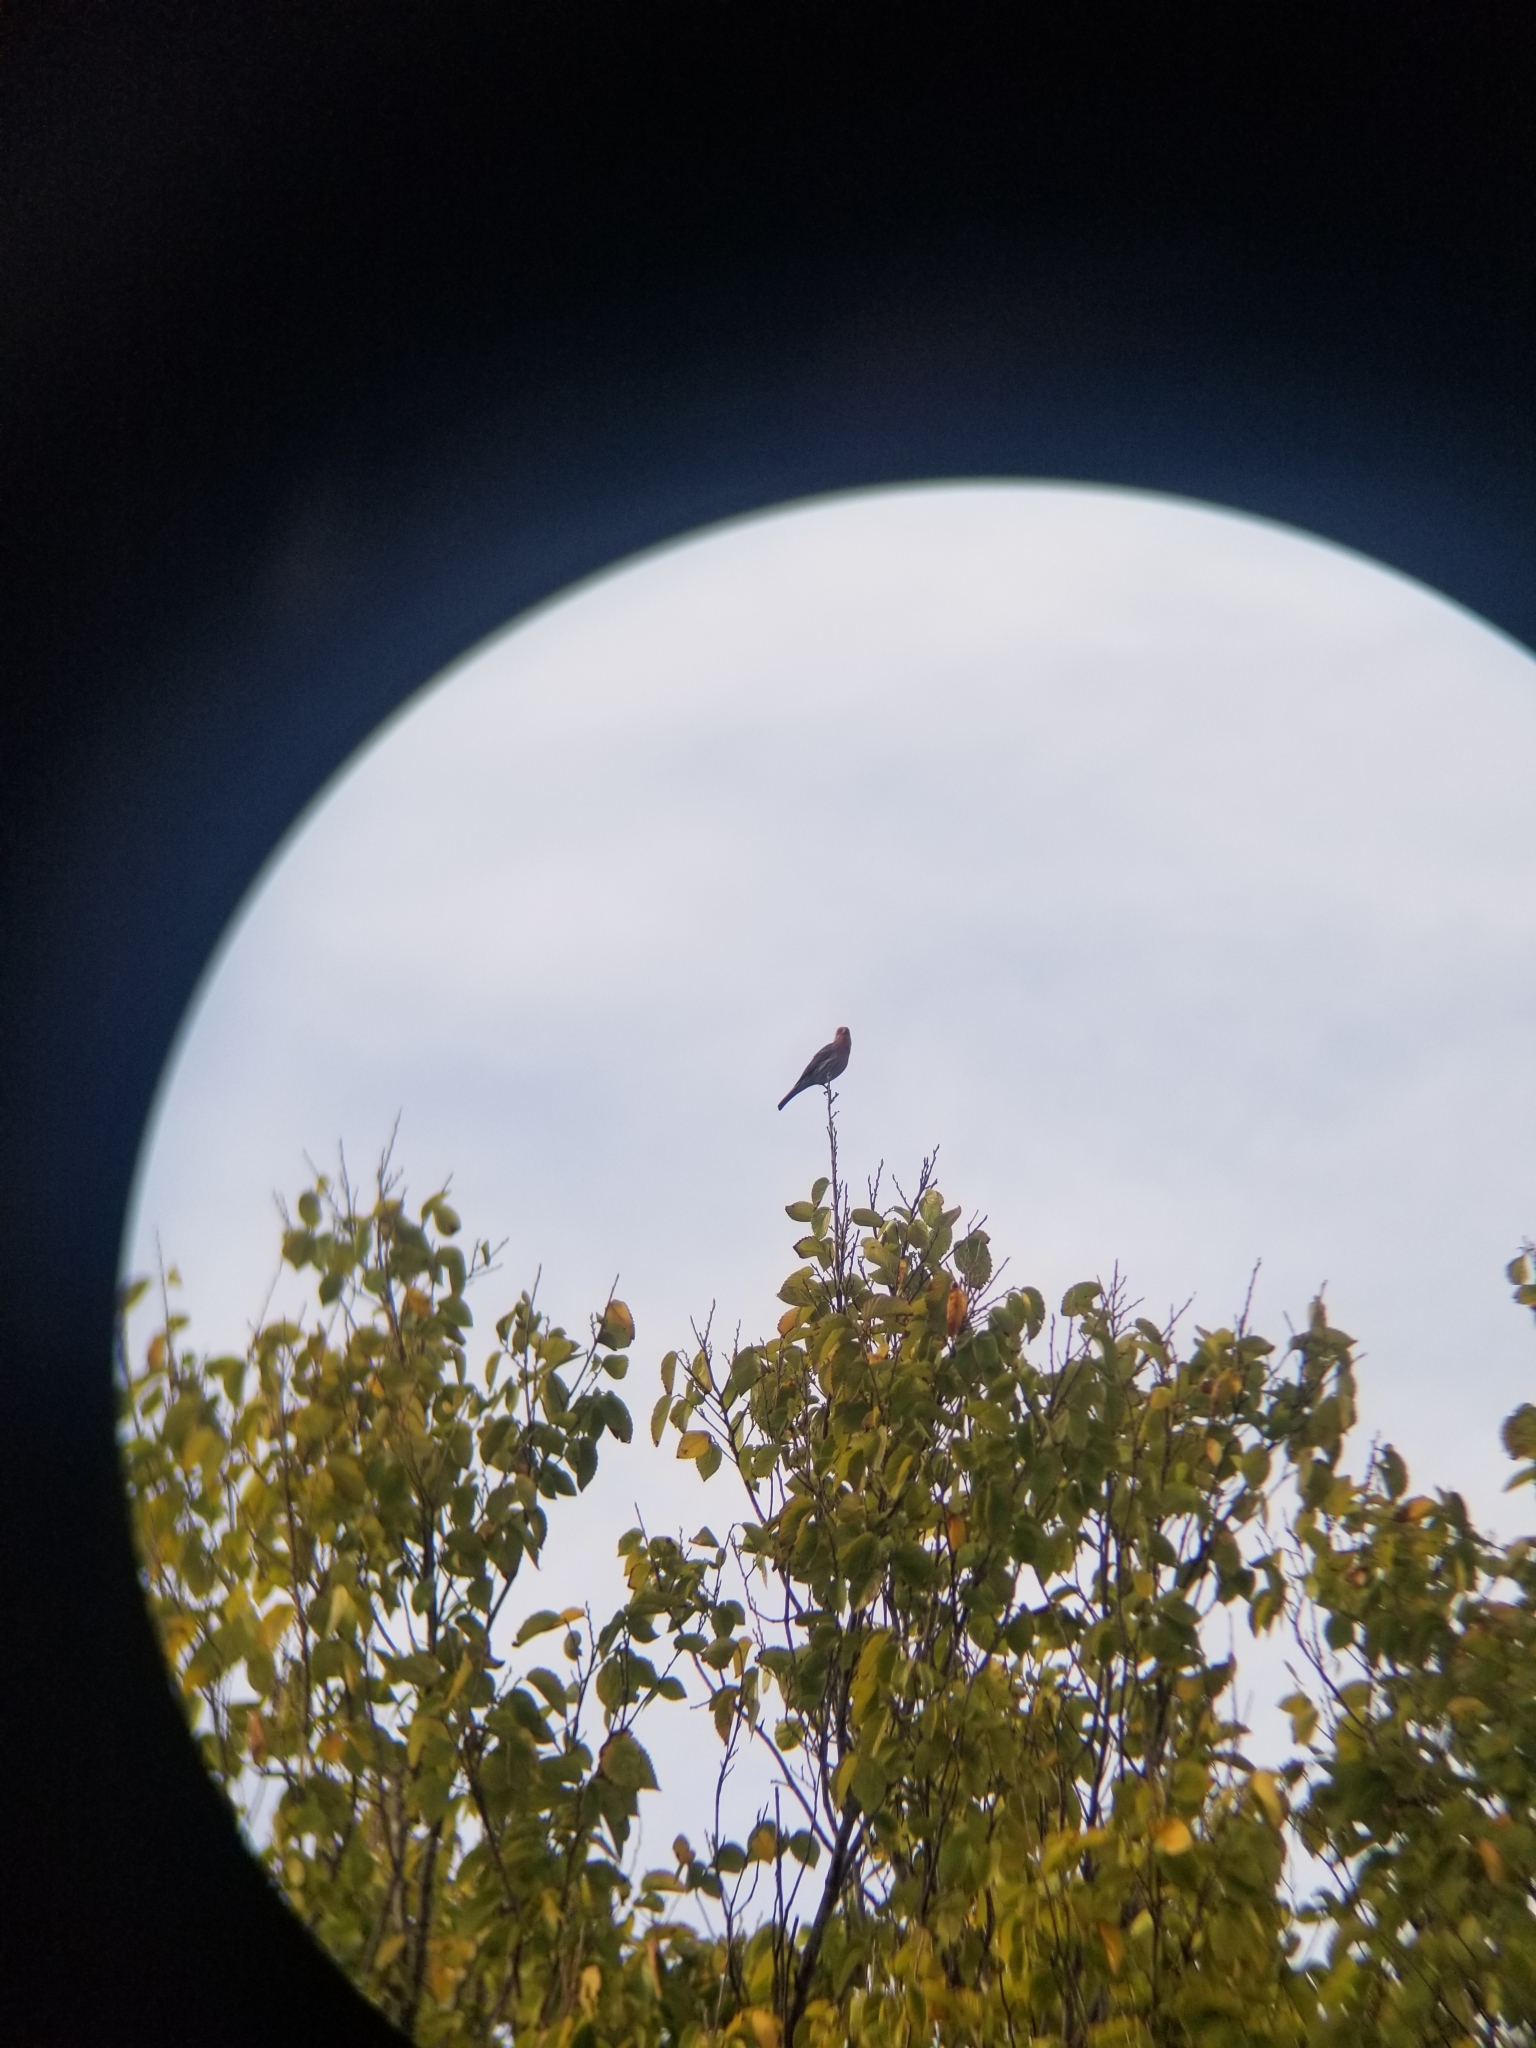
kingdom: Animalia
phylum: Chordata
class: Aves
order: Passeriformes
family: Fringillidae
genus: Haemorhous
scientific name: Haemorhous mexicanus
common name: House finch
